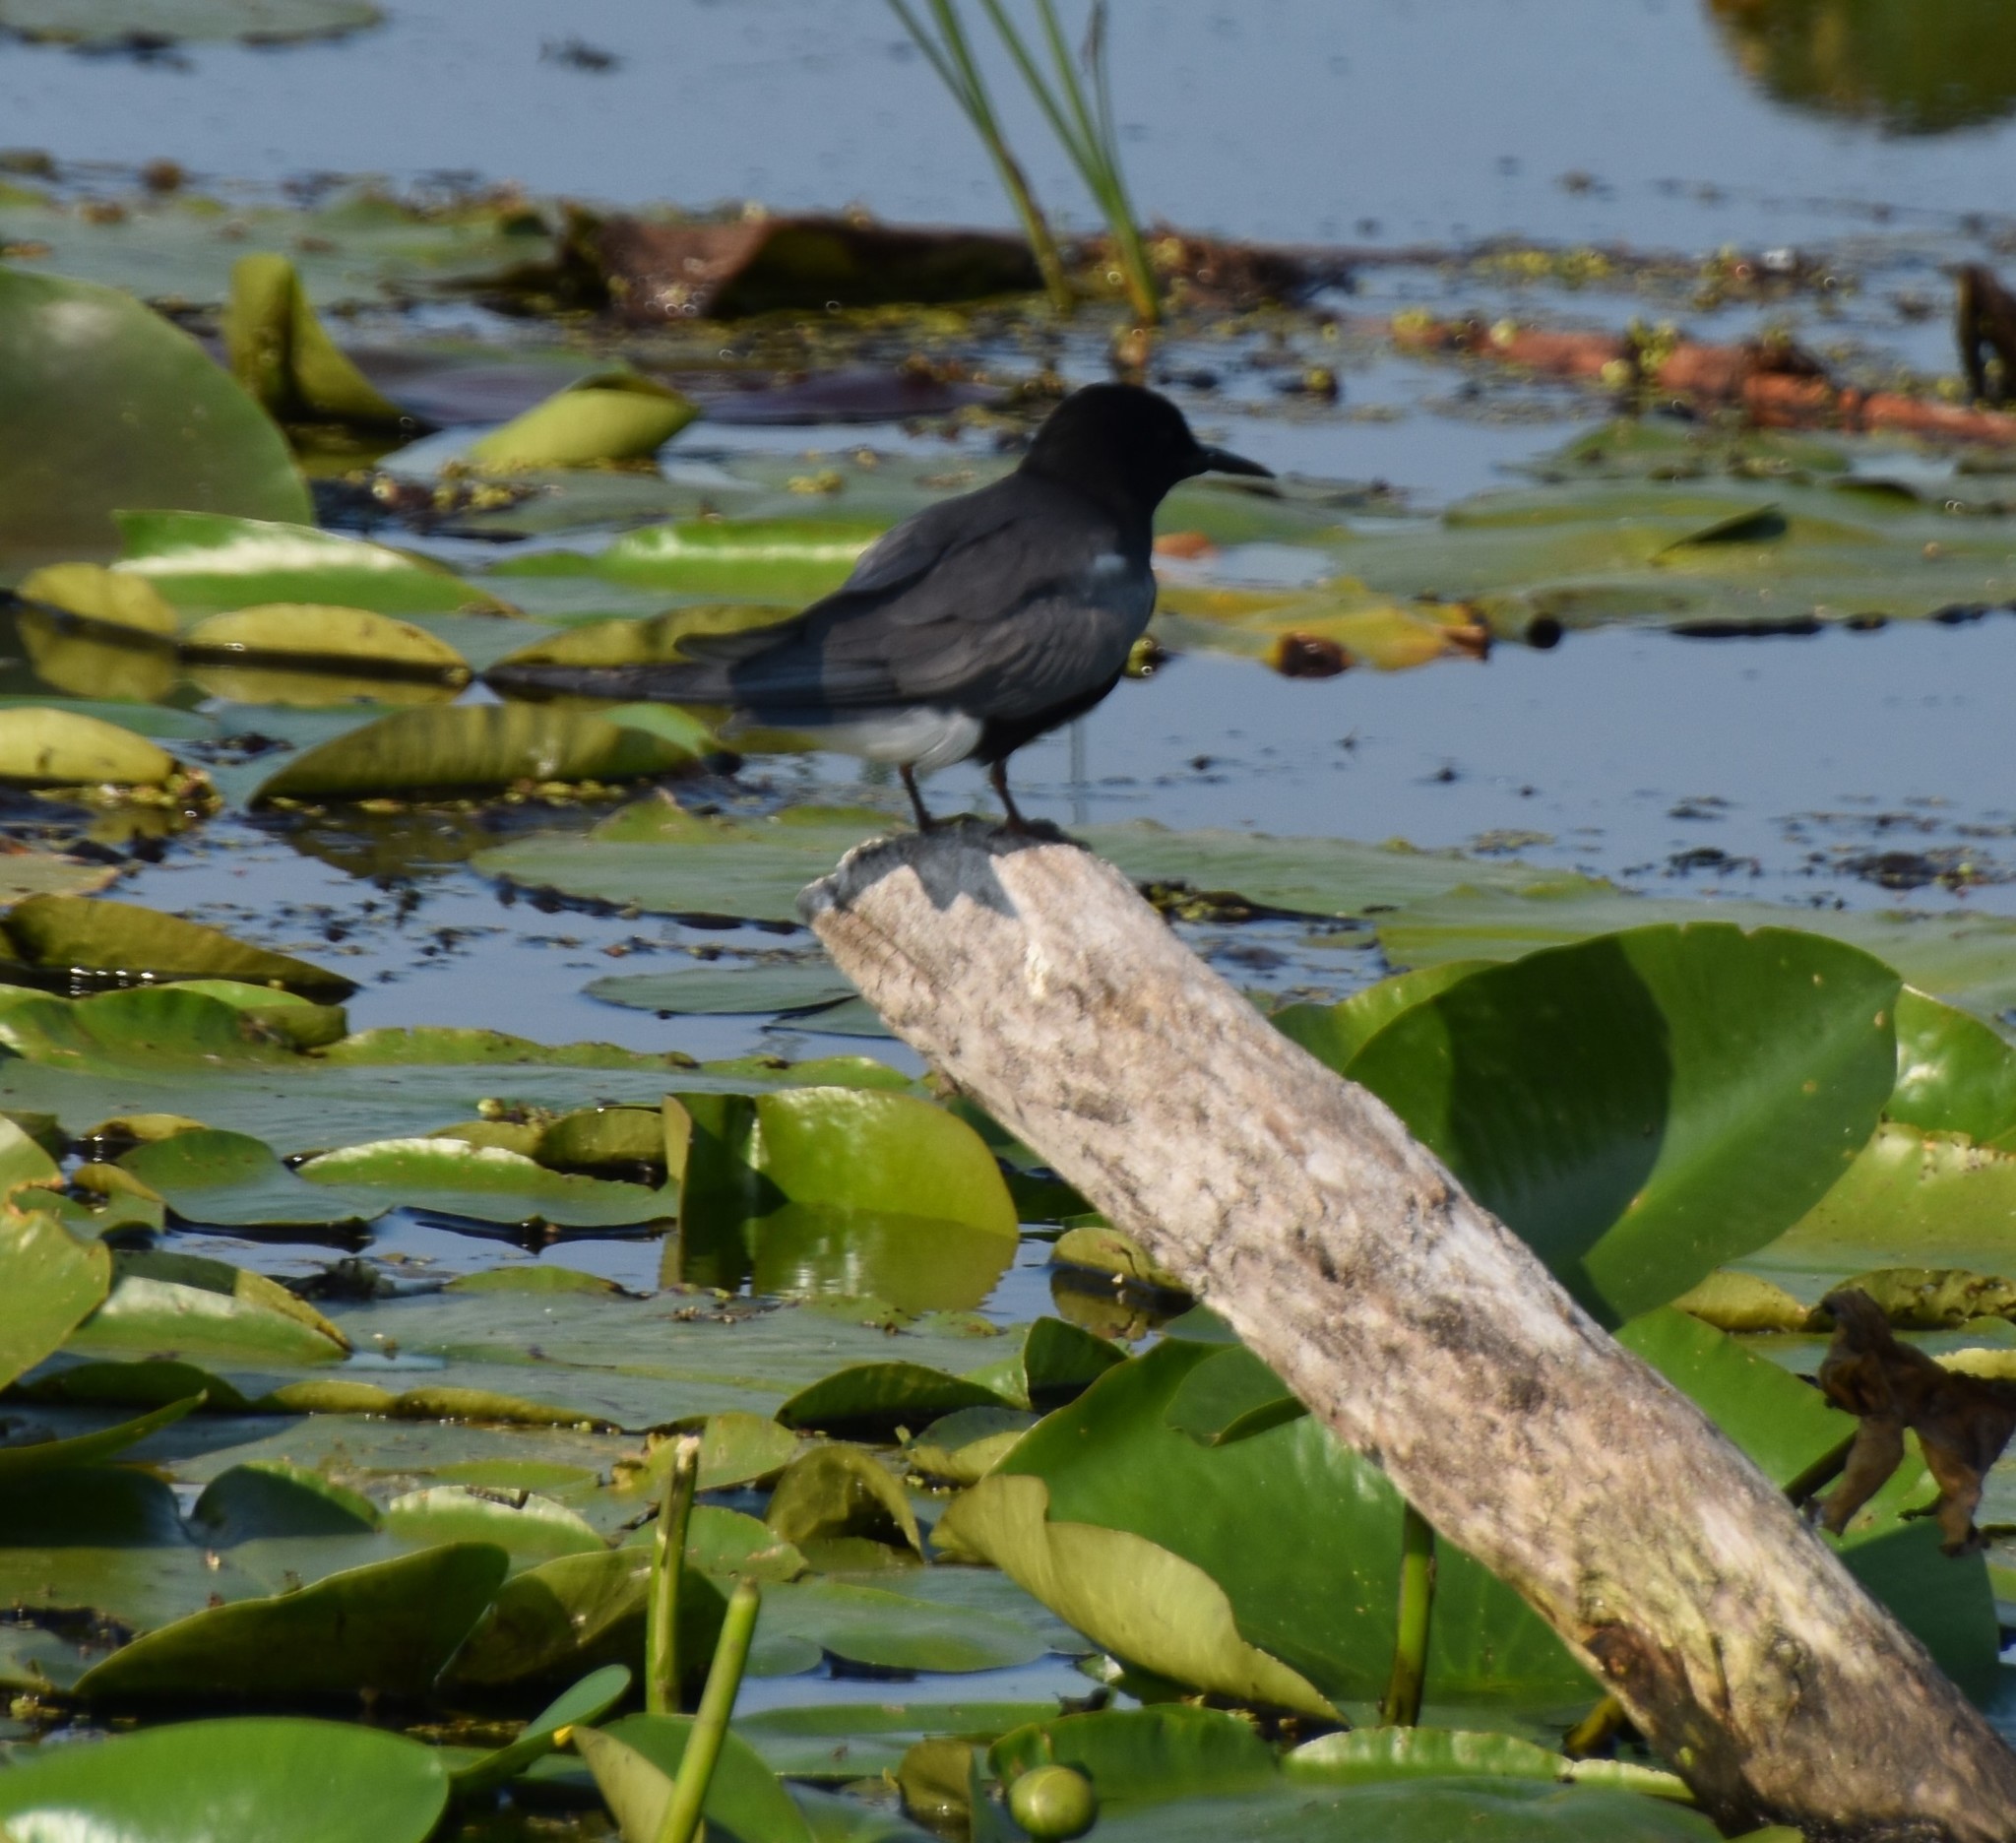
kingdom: Animalia
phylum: Chordata
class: Aves
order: Charadriiformes
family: Laridae
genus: Chlidonias
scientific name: Chlidonias niger
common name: Black tern
